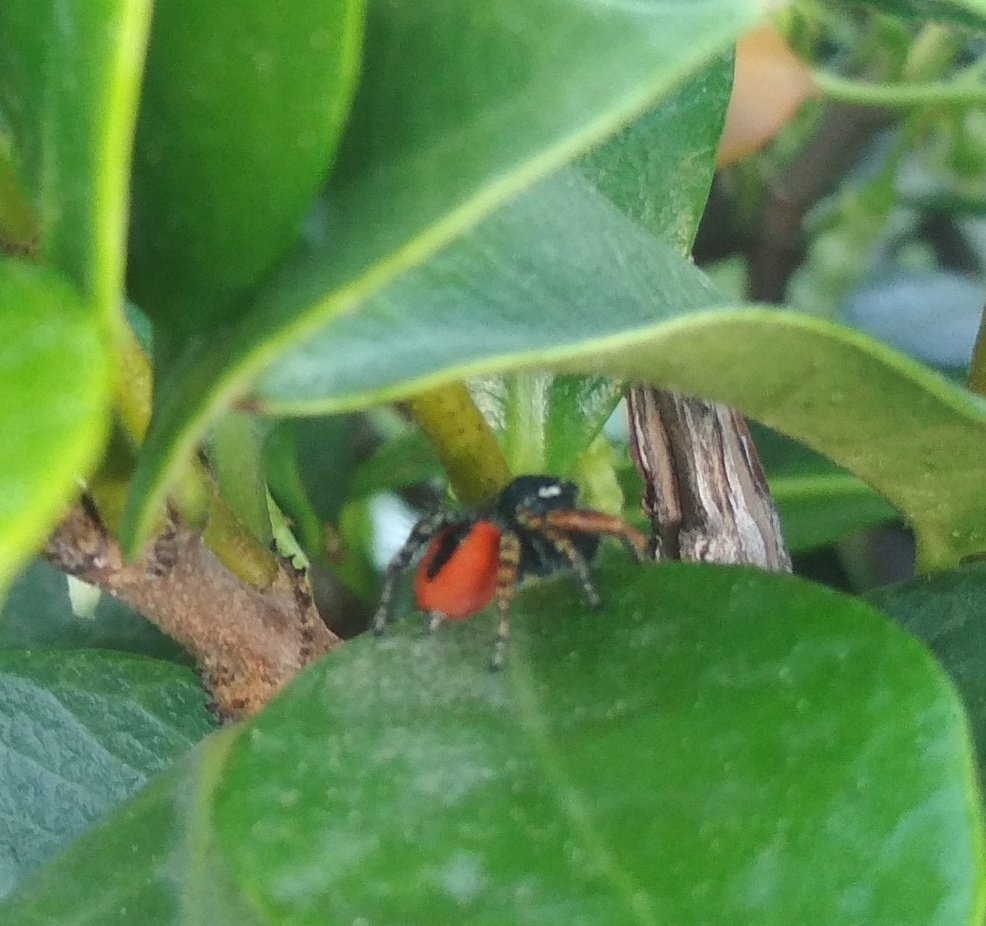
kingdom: Animalia
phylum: Arthropoda
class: Arachnida
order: Araneae
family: Salticidae
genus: Philaeus
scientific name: Philaeus chrysops
